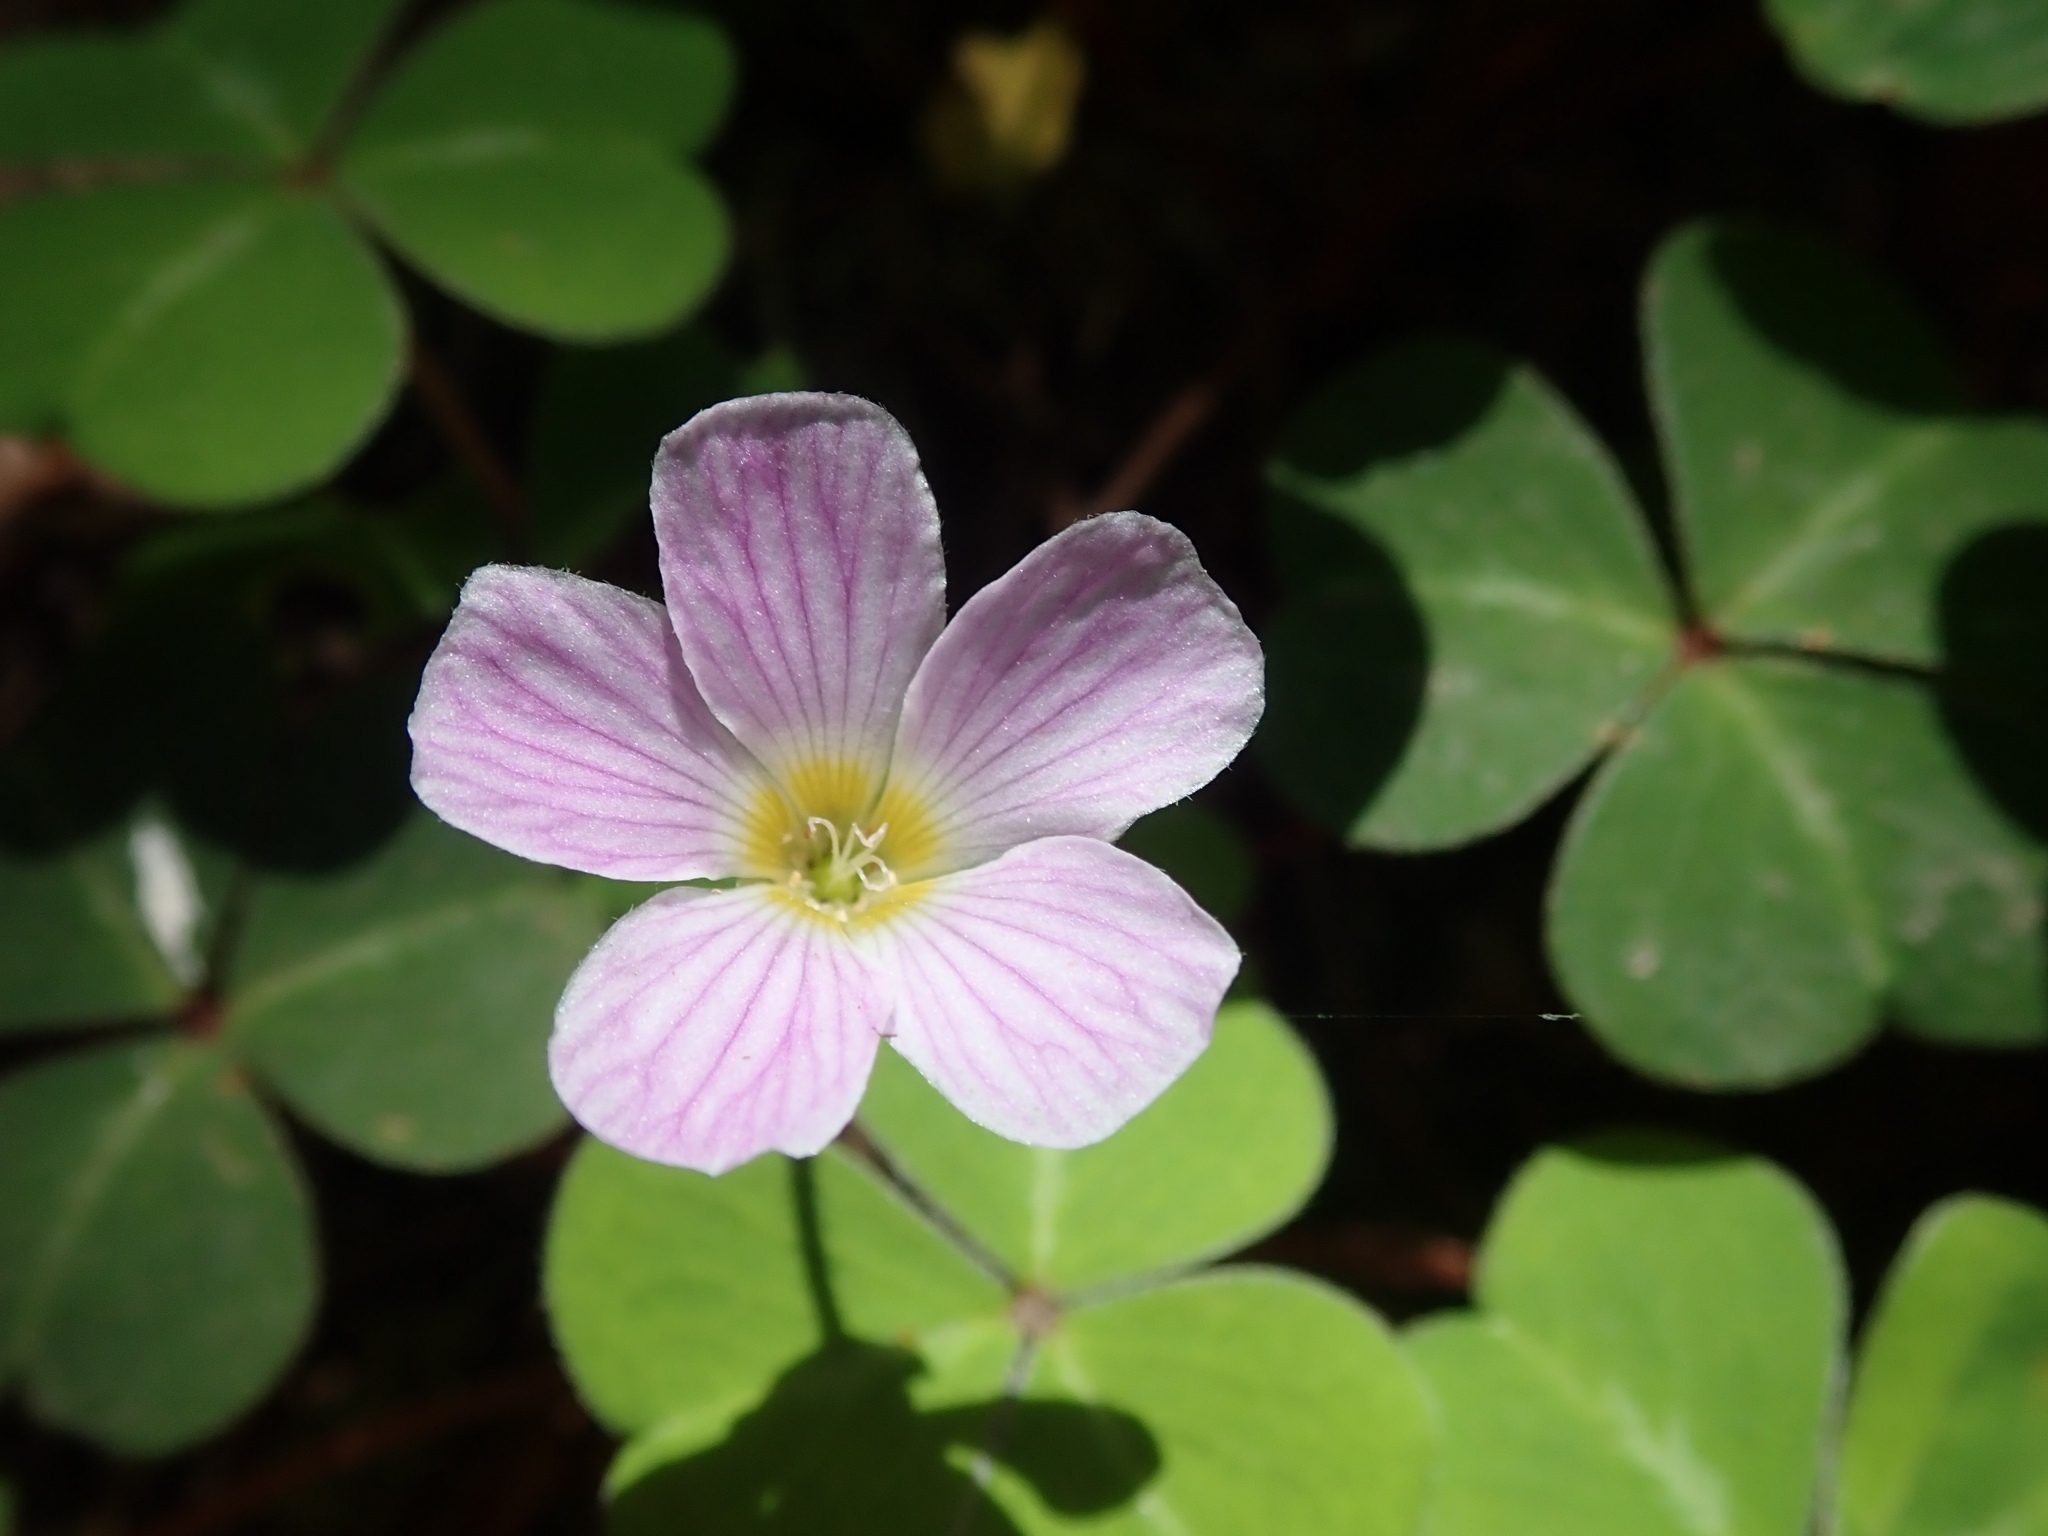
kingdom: Plantae
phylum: Tracheophyta
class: Magnoliopsida
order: Oxalidales
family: Oxalidaceae
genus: Oxalis
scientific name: Oxalis oregana
